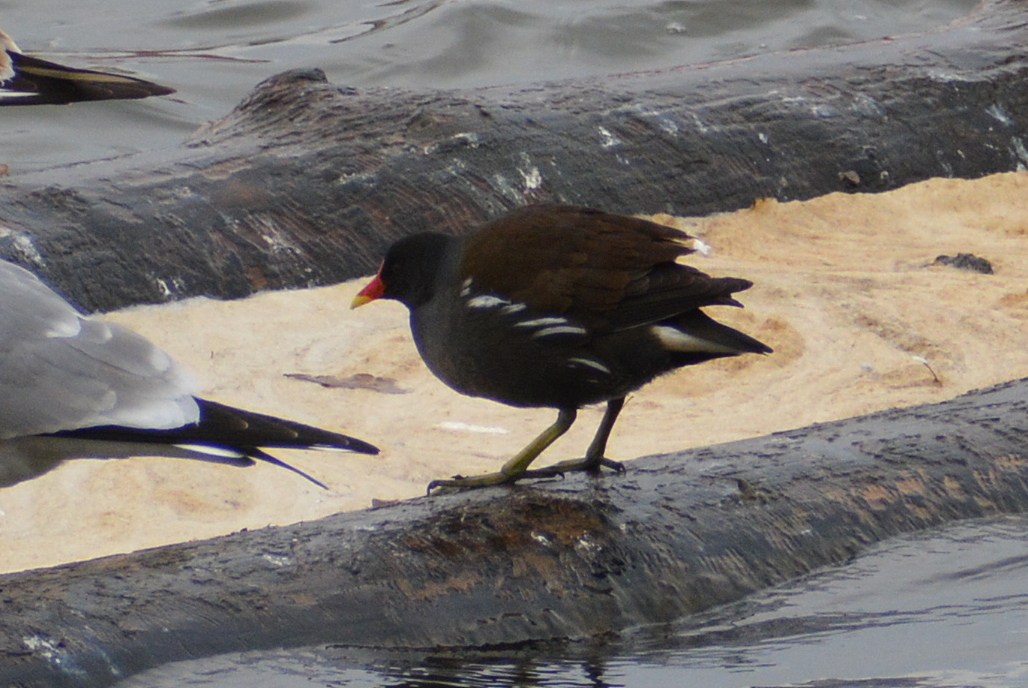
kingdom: Animalia
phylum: Chordata
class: Aves
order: Gruiformes
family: Rallidae
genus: Gallinula
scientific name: Gallinula chloropus
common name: Common moorhen
